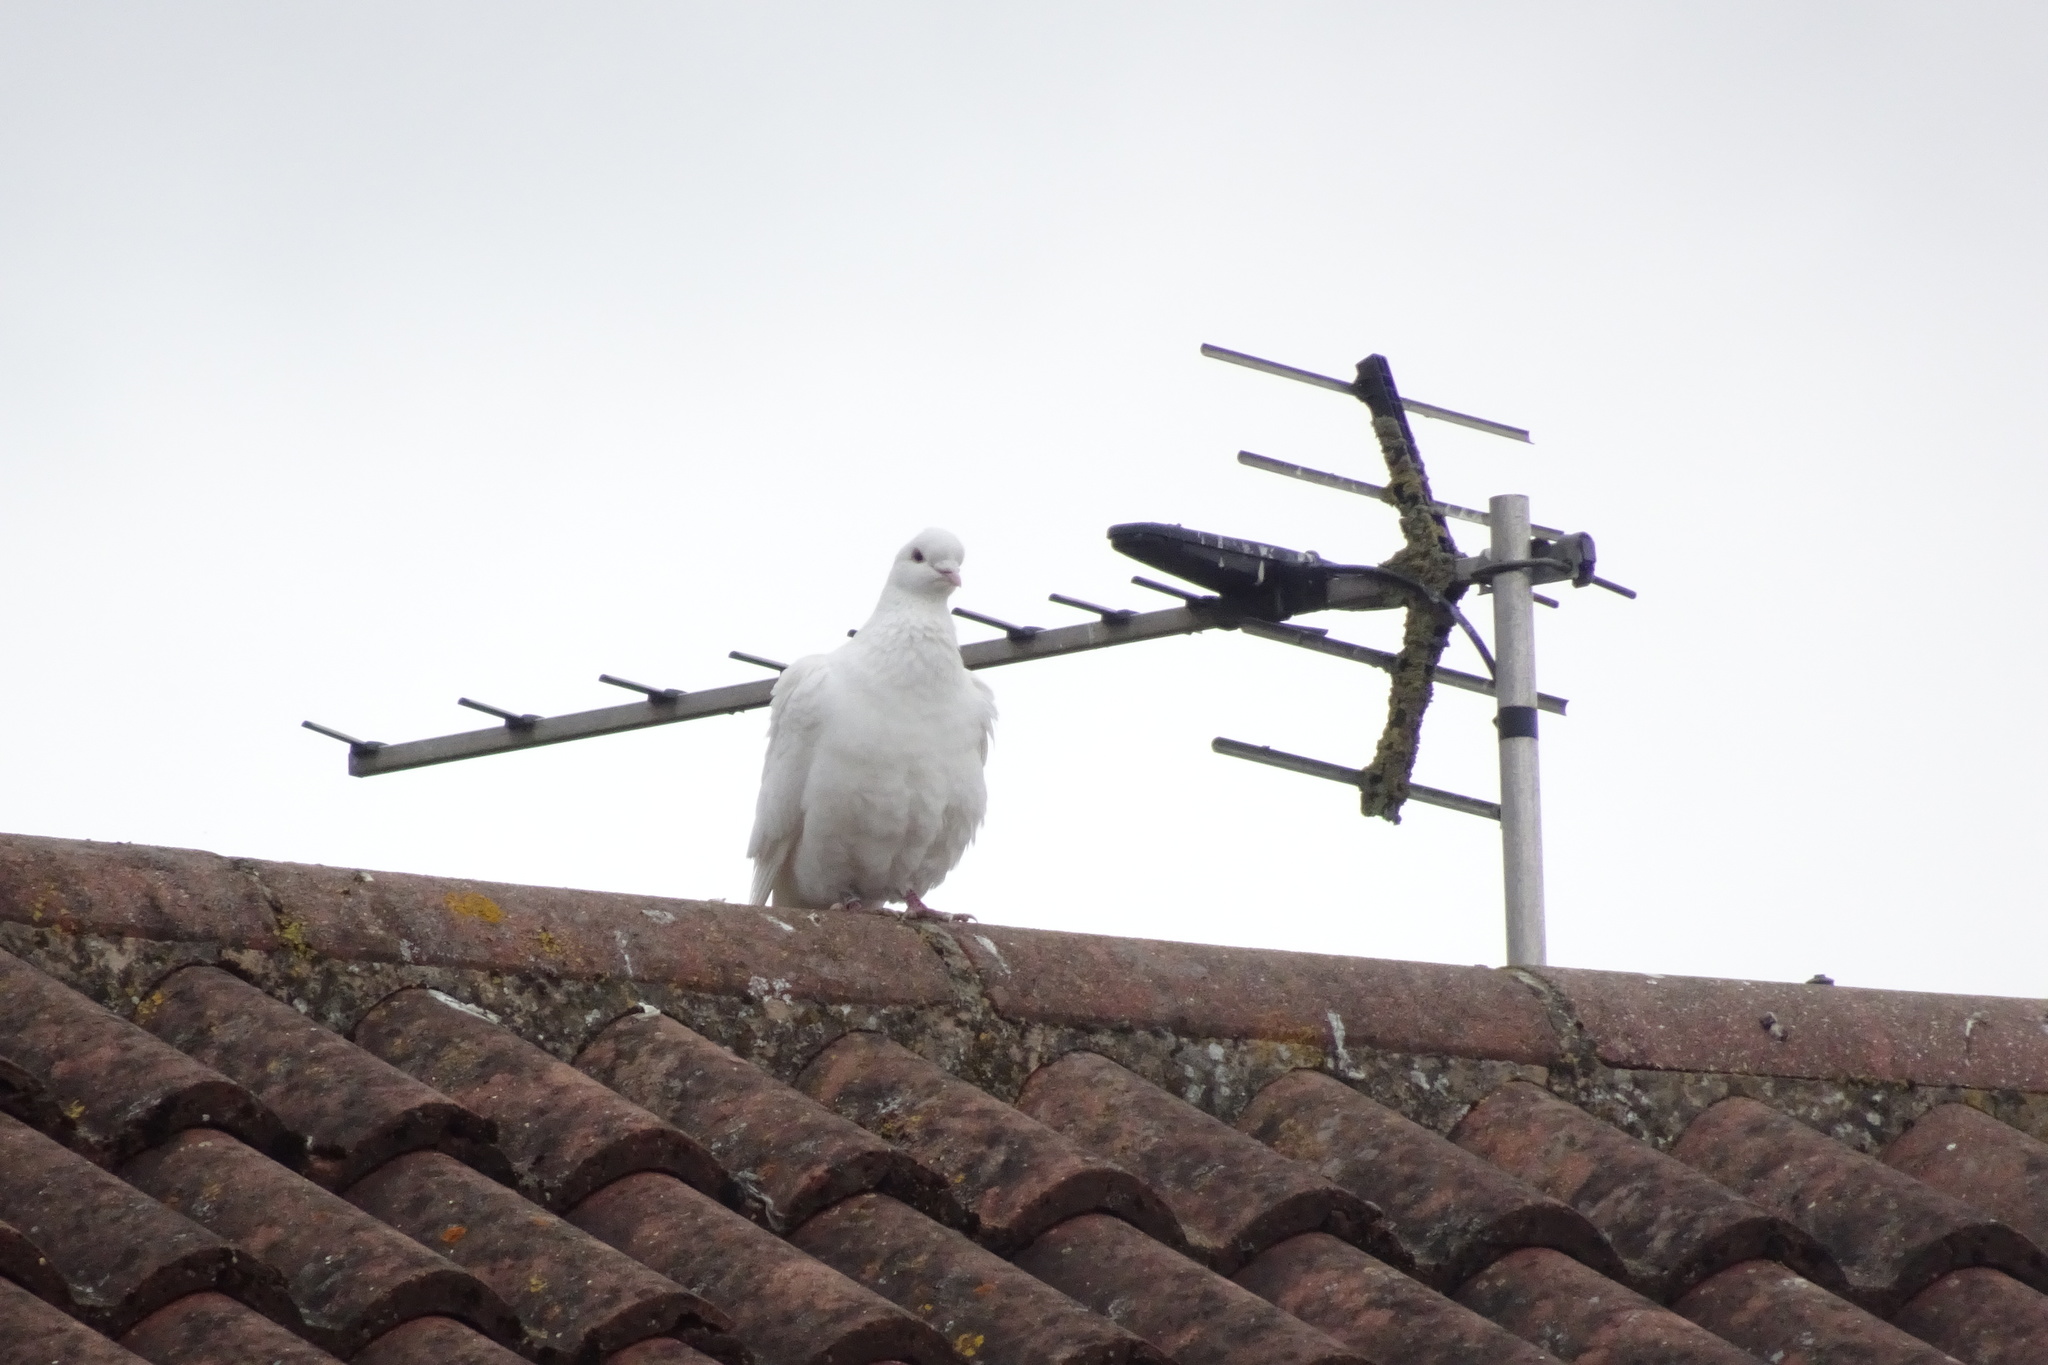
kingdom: Animalia
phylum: Chordata
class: Aves
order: Columbiformes
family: Columbidae
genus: Columba
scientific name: Columba livia
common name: Rock pigeon
